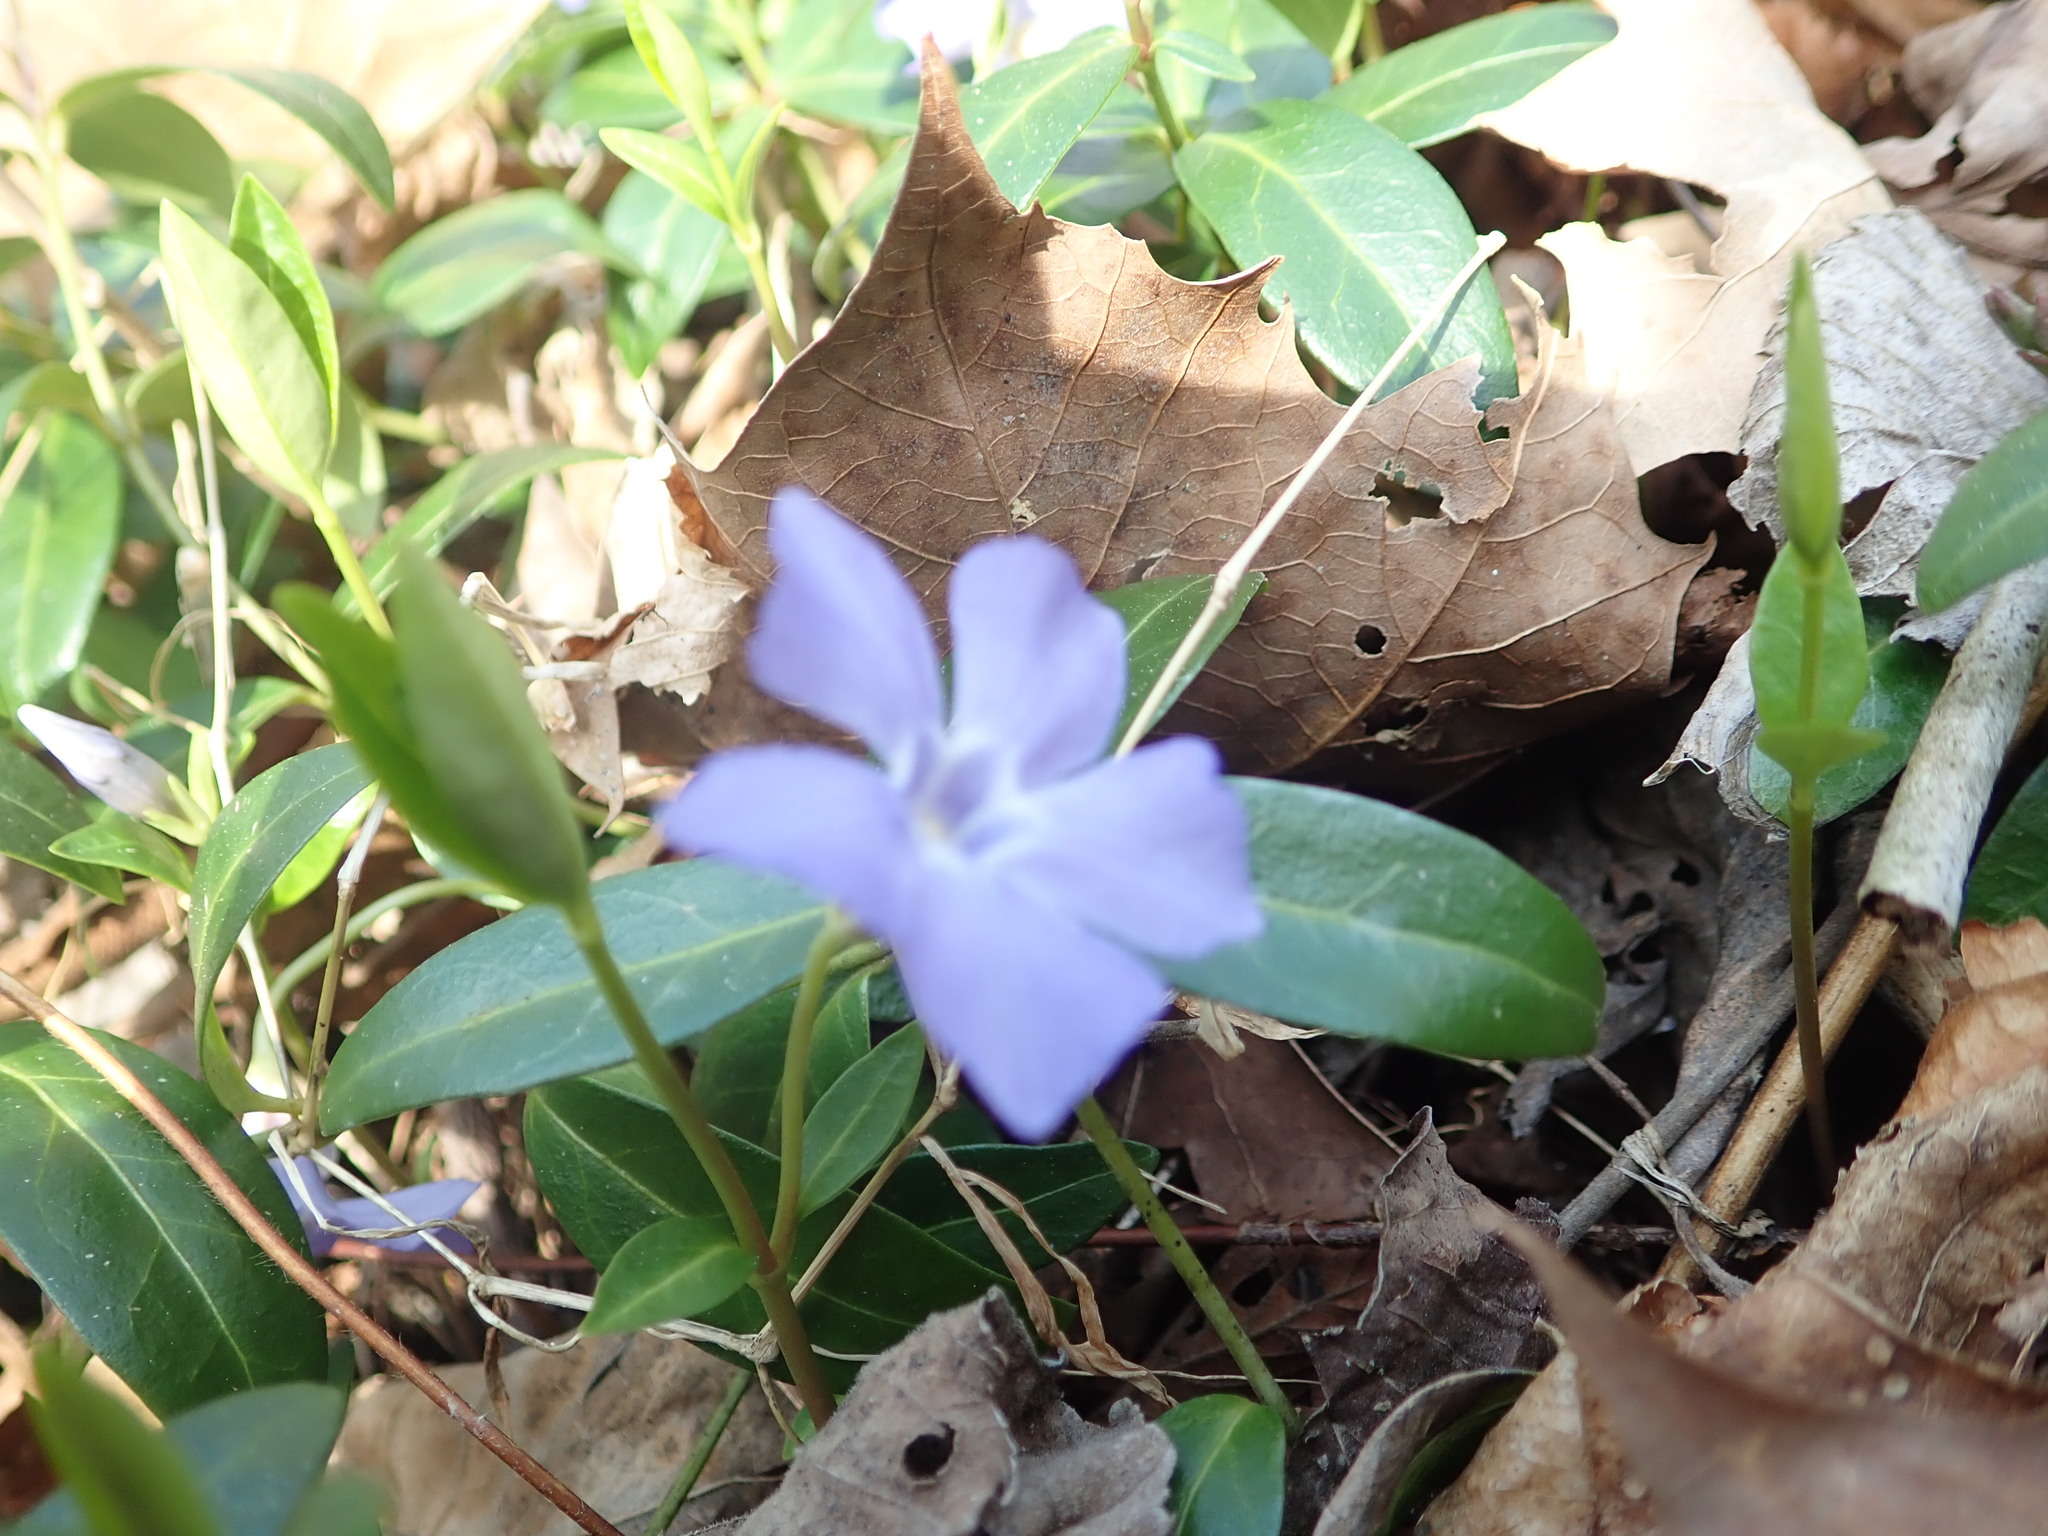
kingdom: Plantae
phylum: Tracheophyta
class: Magnoliopsida
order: Gentianales
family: Apocynaceae
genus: Vinca
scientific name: Vinca minor
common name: Lesser periwinkle
